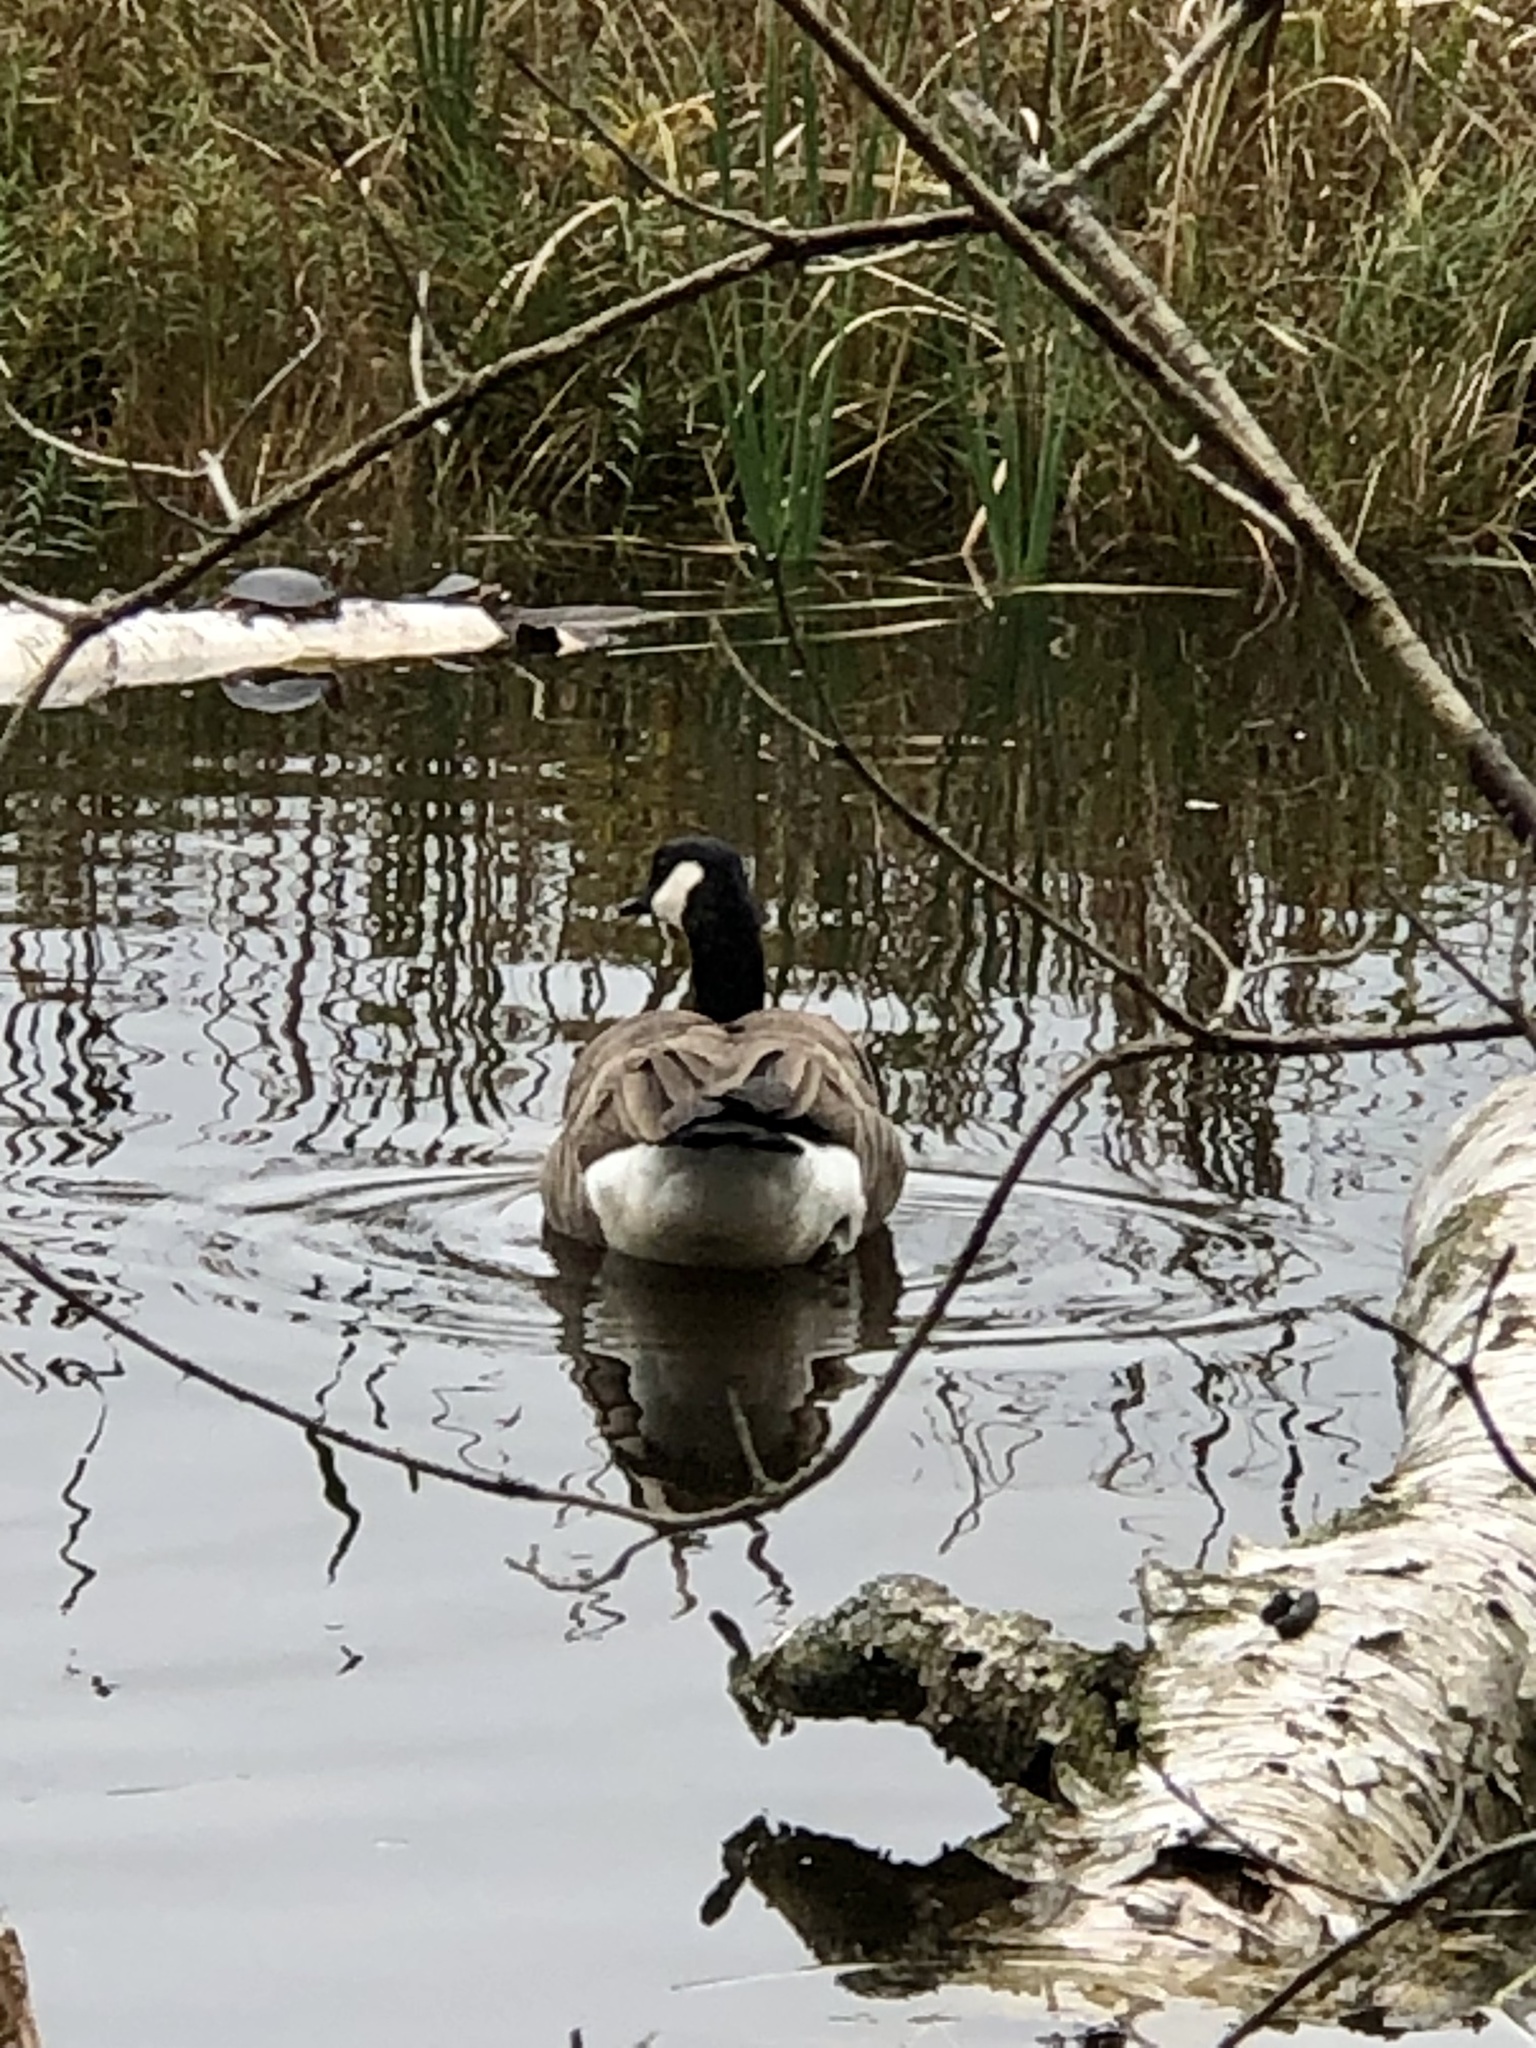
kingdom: Animalia
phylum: Chordata
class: Aves
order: Anseriformes
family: Anatidae
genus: Branta
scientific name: Branta canadensis
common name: Canada goose
